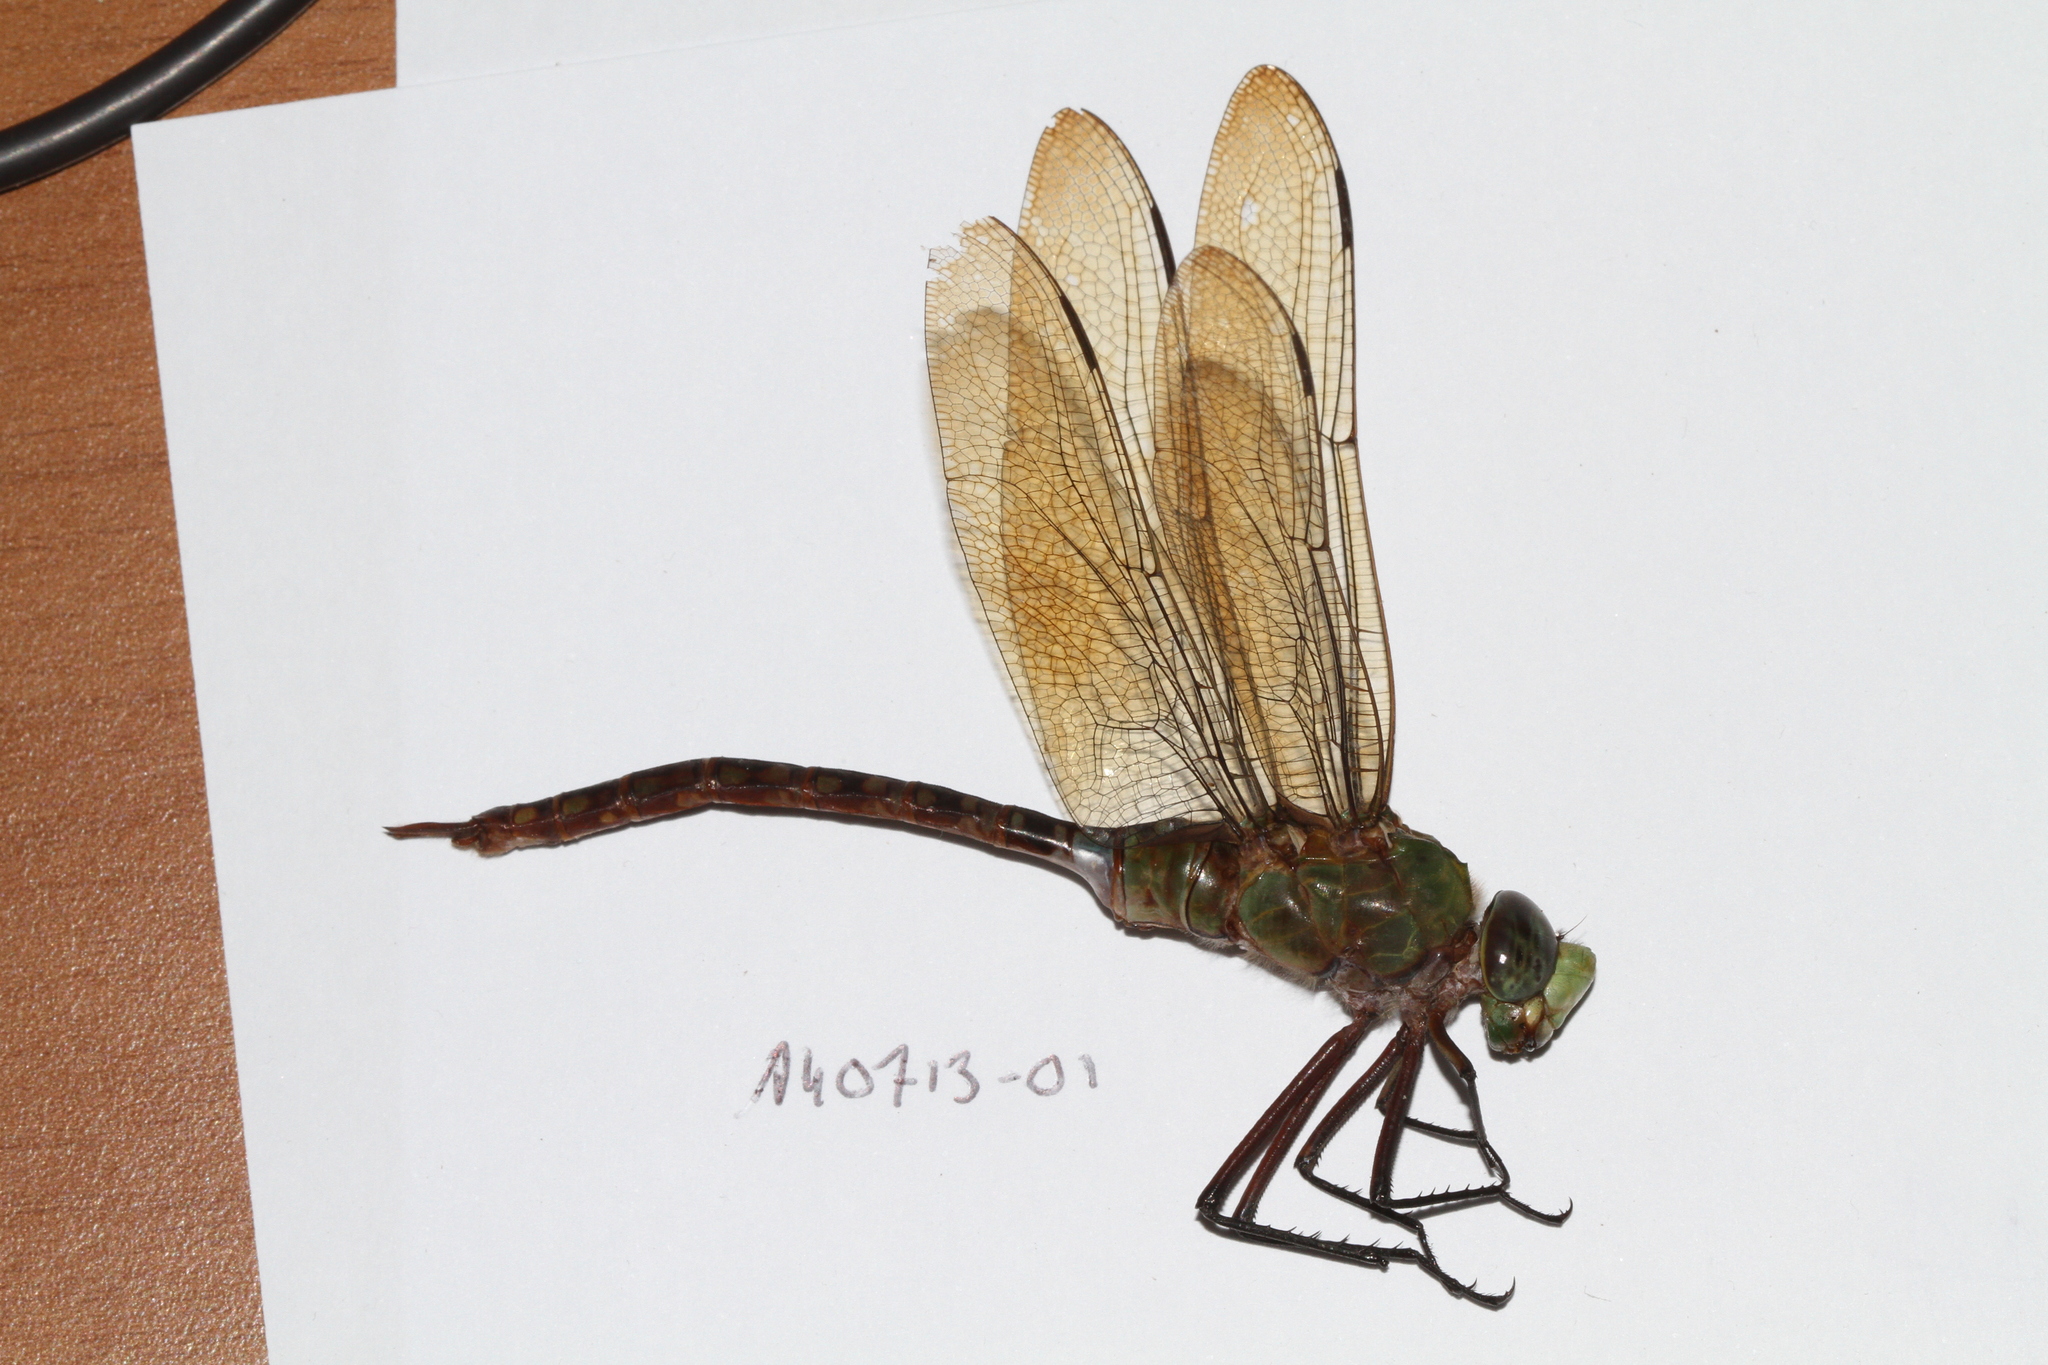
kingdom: Animalia
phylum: Arthropoda
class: Insecta
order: Odonata
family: Aeshnidae
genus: Anax
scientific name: Anax concolor
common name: Blue-spotted comet darner
